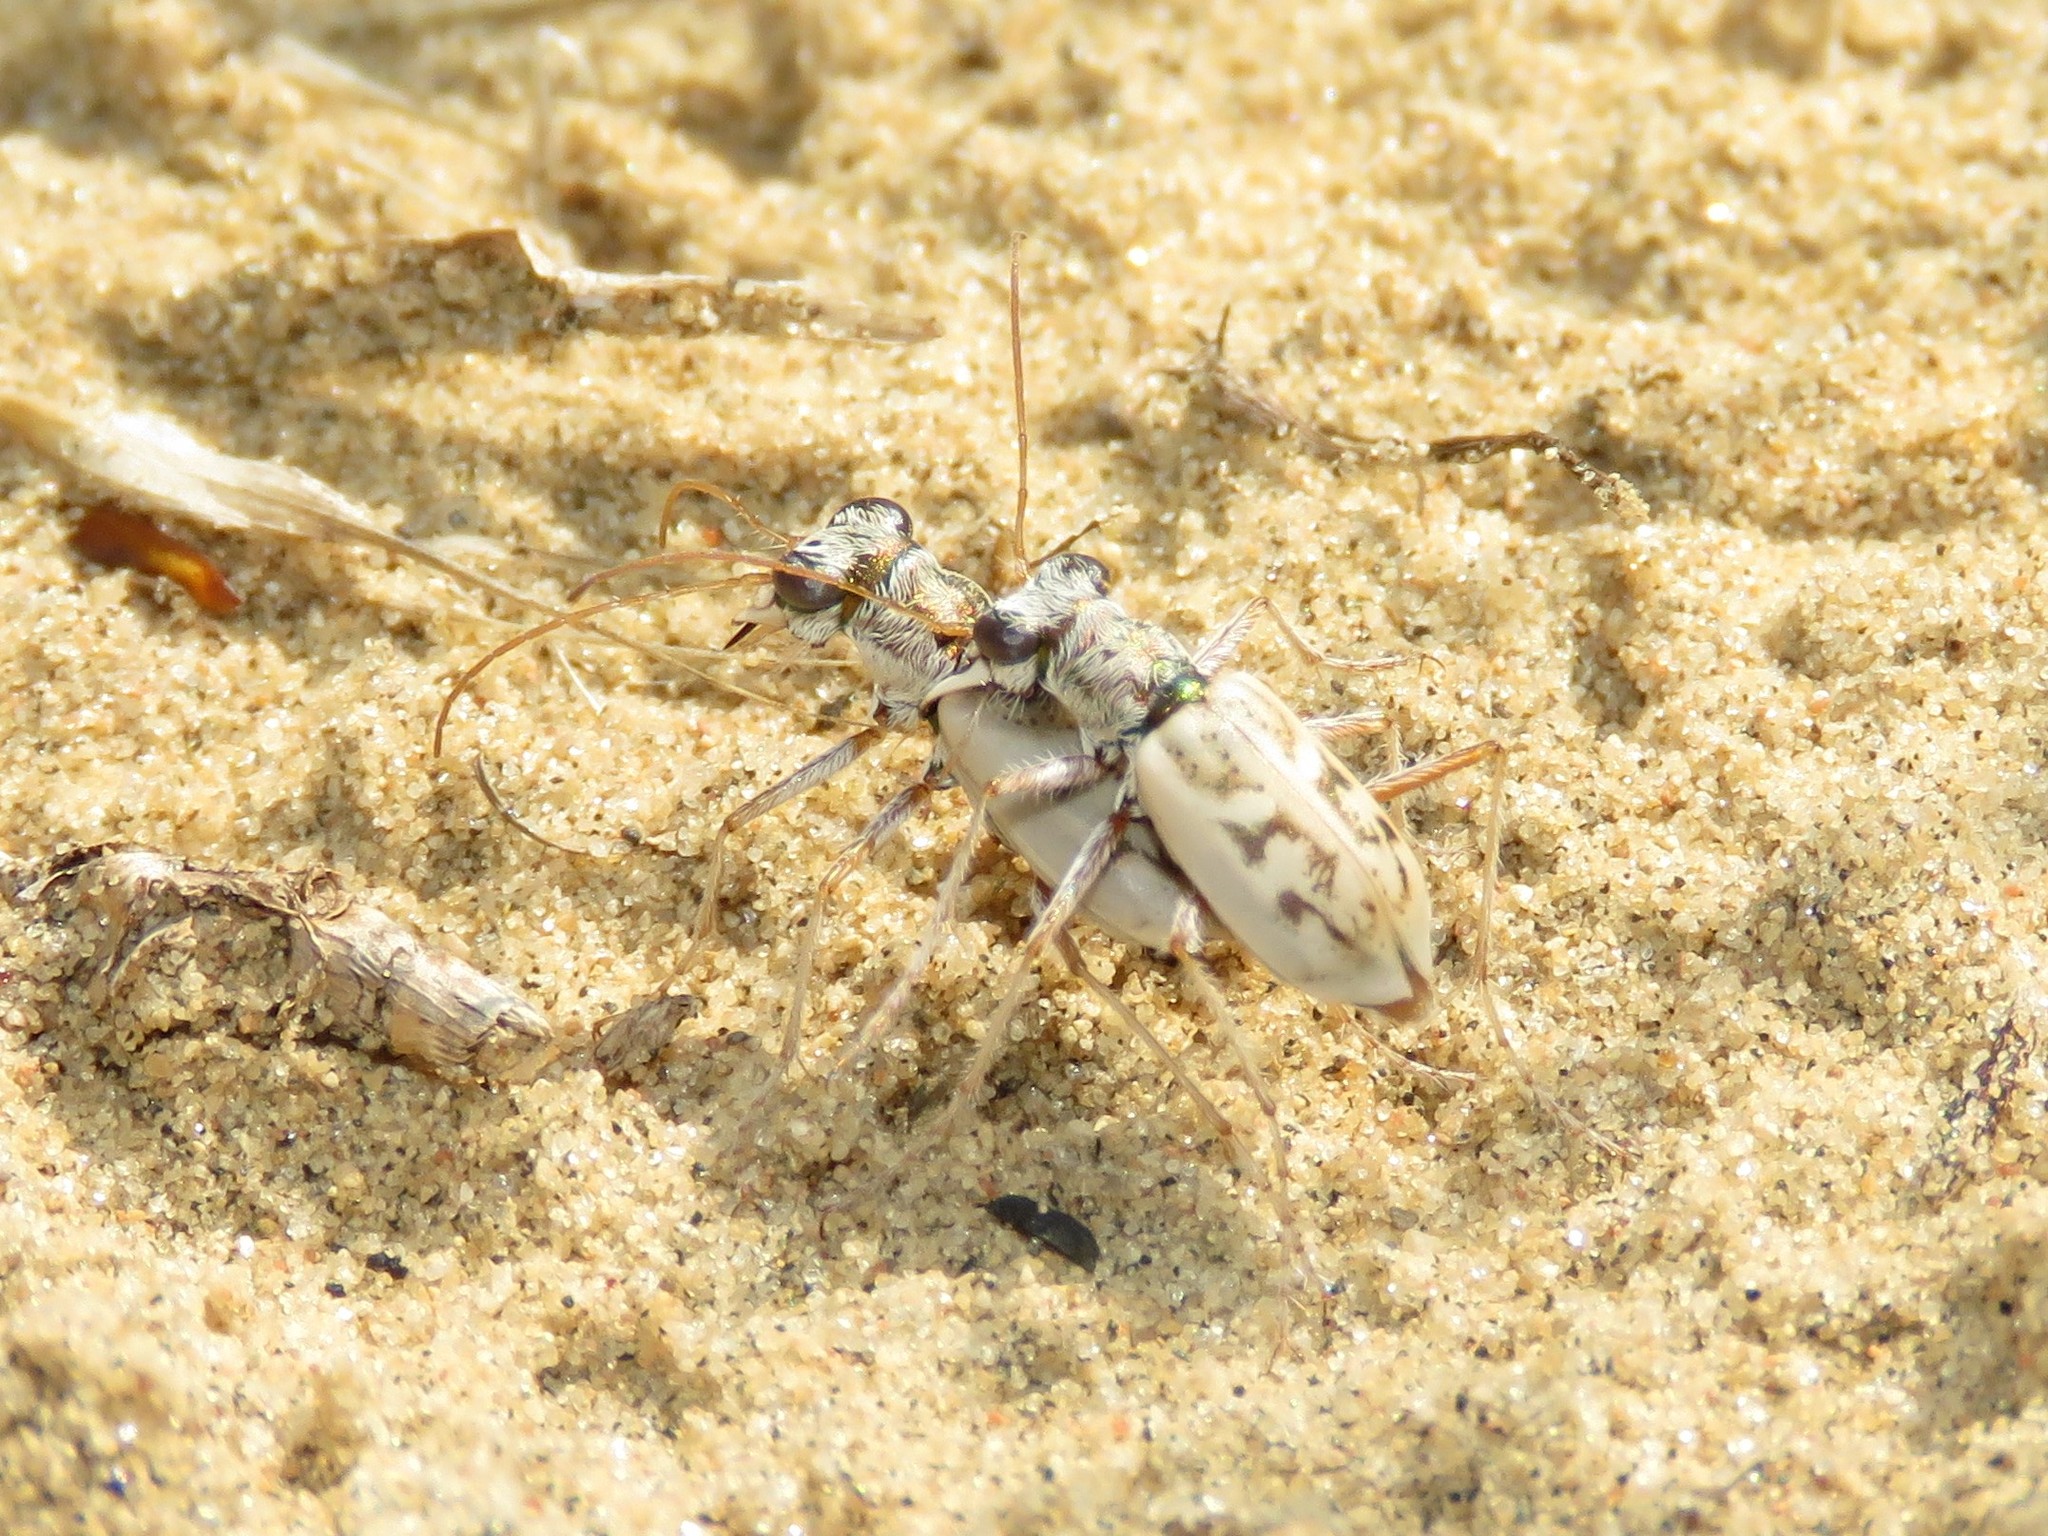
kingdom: Animalia
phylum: Arthropoda
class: Insecta
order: Coleoptera
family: Carabidae
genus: Ellipsoptera
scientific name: Ellipsoptera lepida
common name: Ghost tiger beetle
